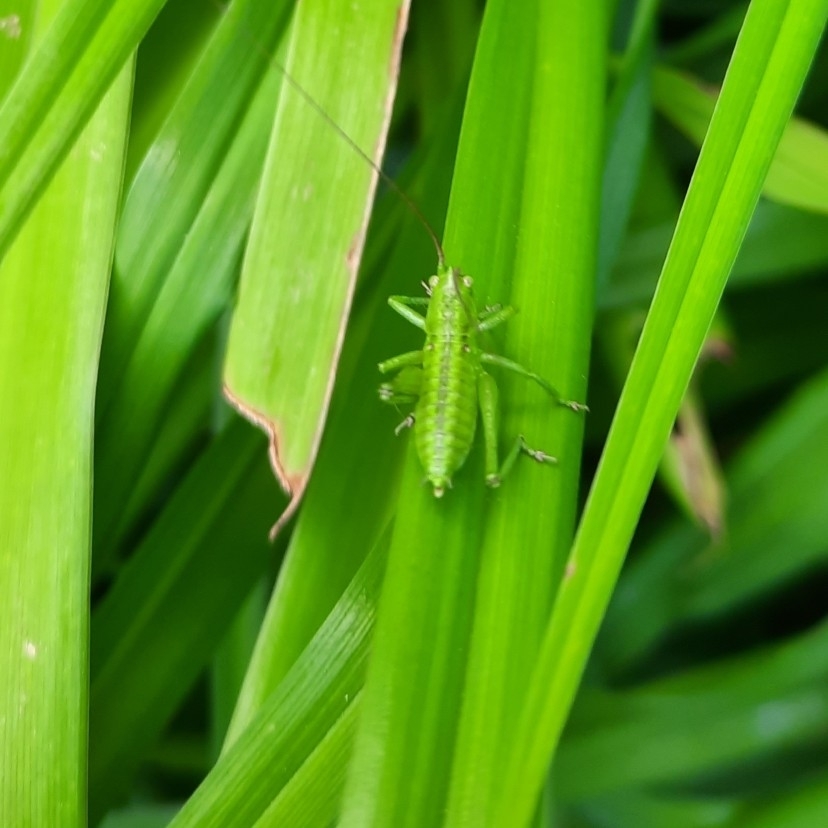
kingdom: Animalia
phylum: Arthropoda
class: Insecta
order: Orthoptera
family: Tettigoniidae
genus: Tettigonia
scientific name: Tettigonia viridissima
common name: Great green bush-cricket
